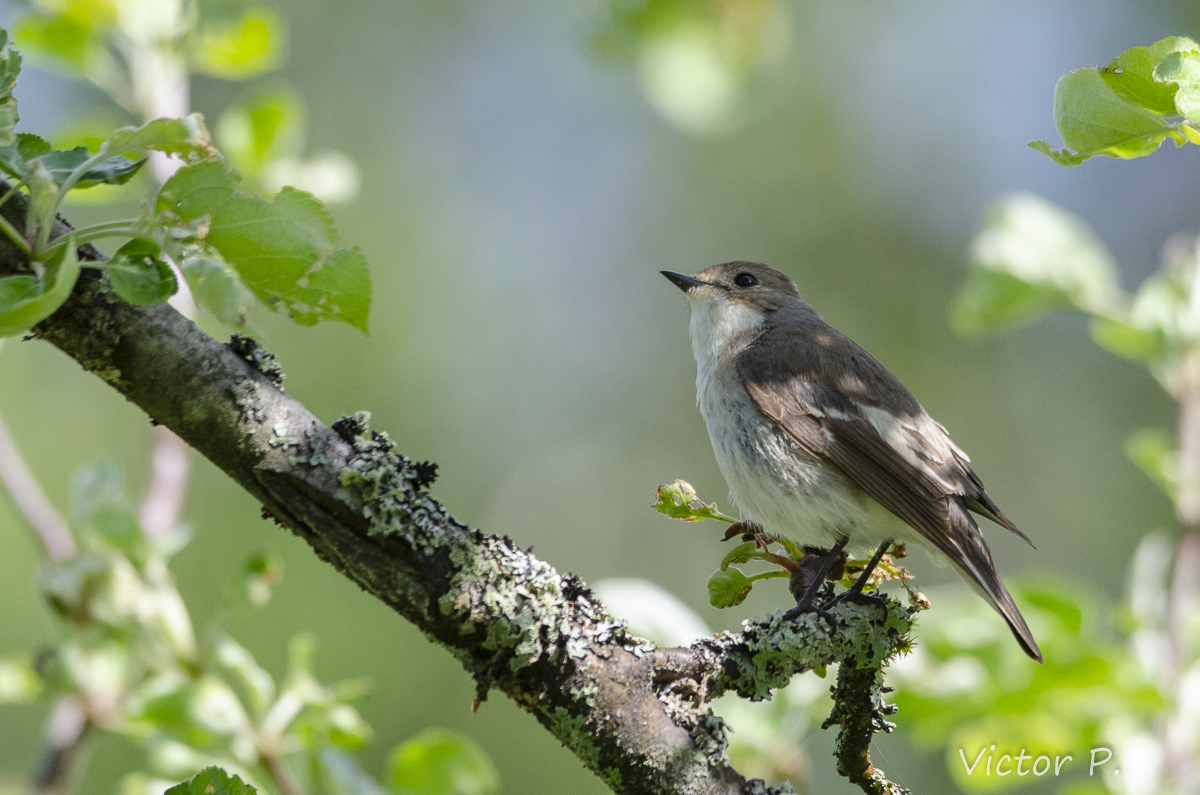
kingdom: Animalia
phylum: Chordata
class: Aves
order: Passeriformes
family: Muscicapidae
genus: Ficedula
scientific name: Ficedula hypoleuca
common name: European pied flycatcher
